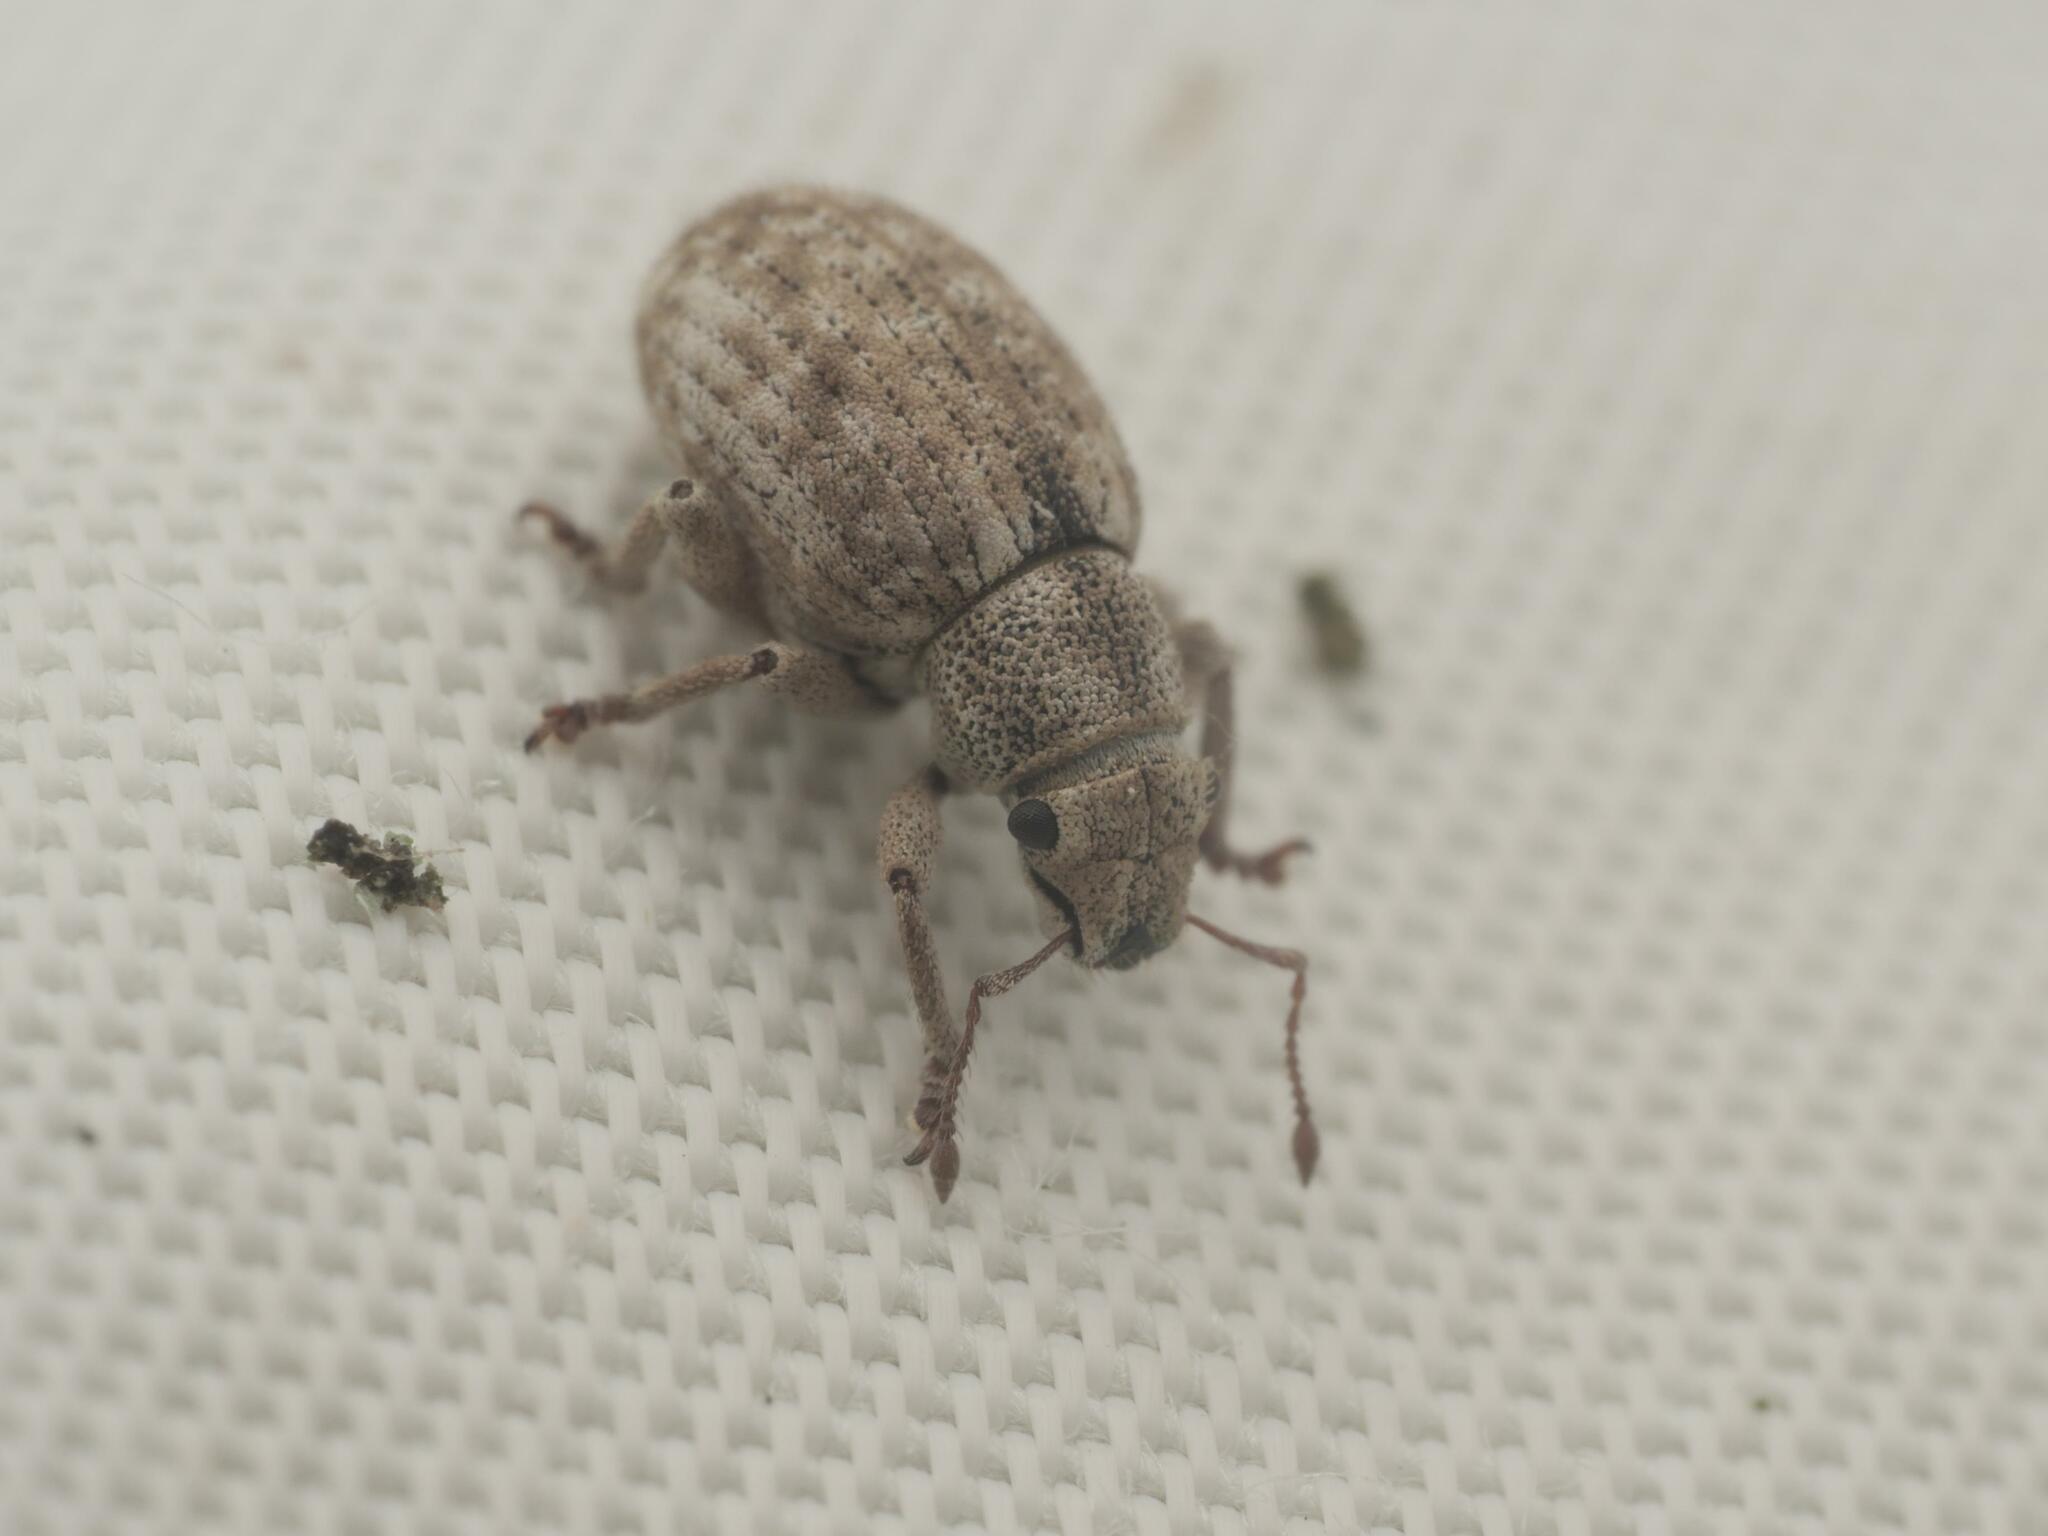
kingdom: Animalia
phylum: Arthropoda
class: Insecta
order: Coleoptera
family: Curculionidae
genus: Strophosoma
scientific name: Strophosoma capitatum
